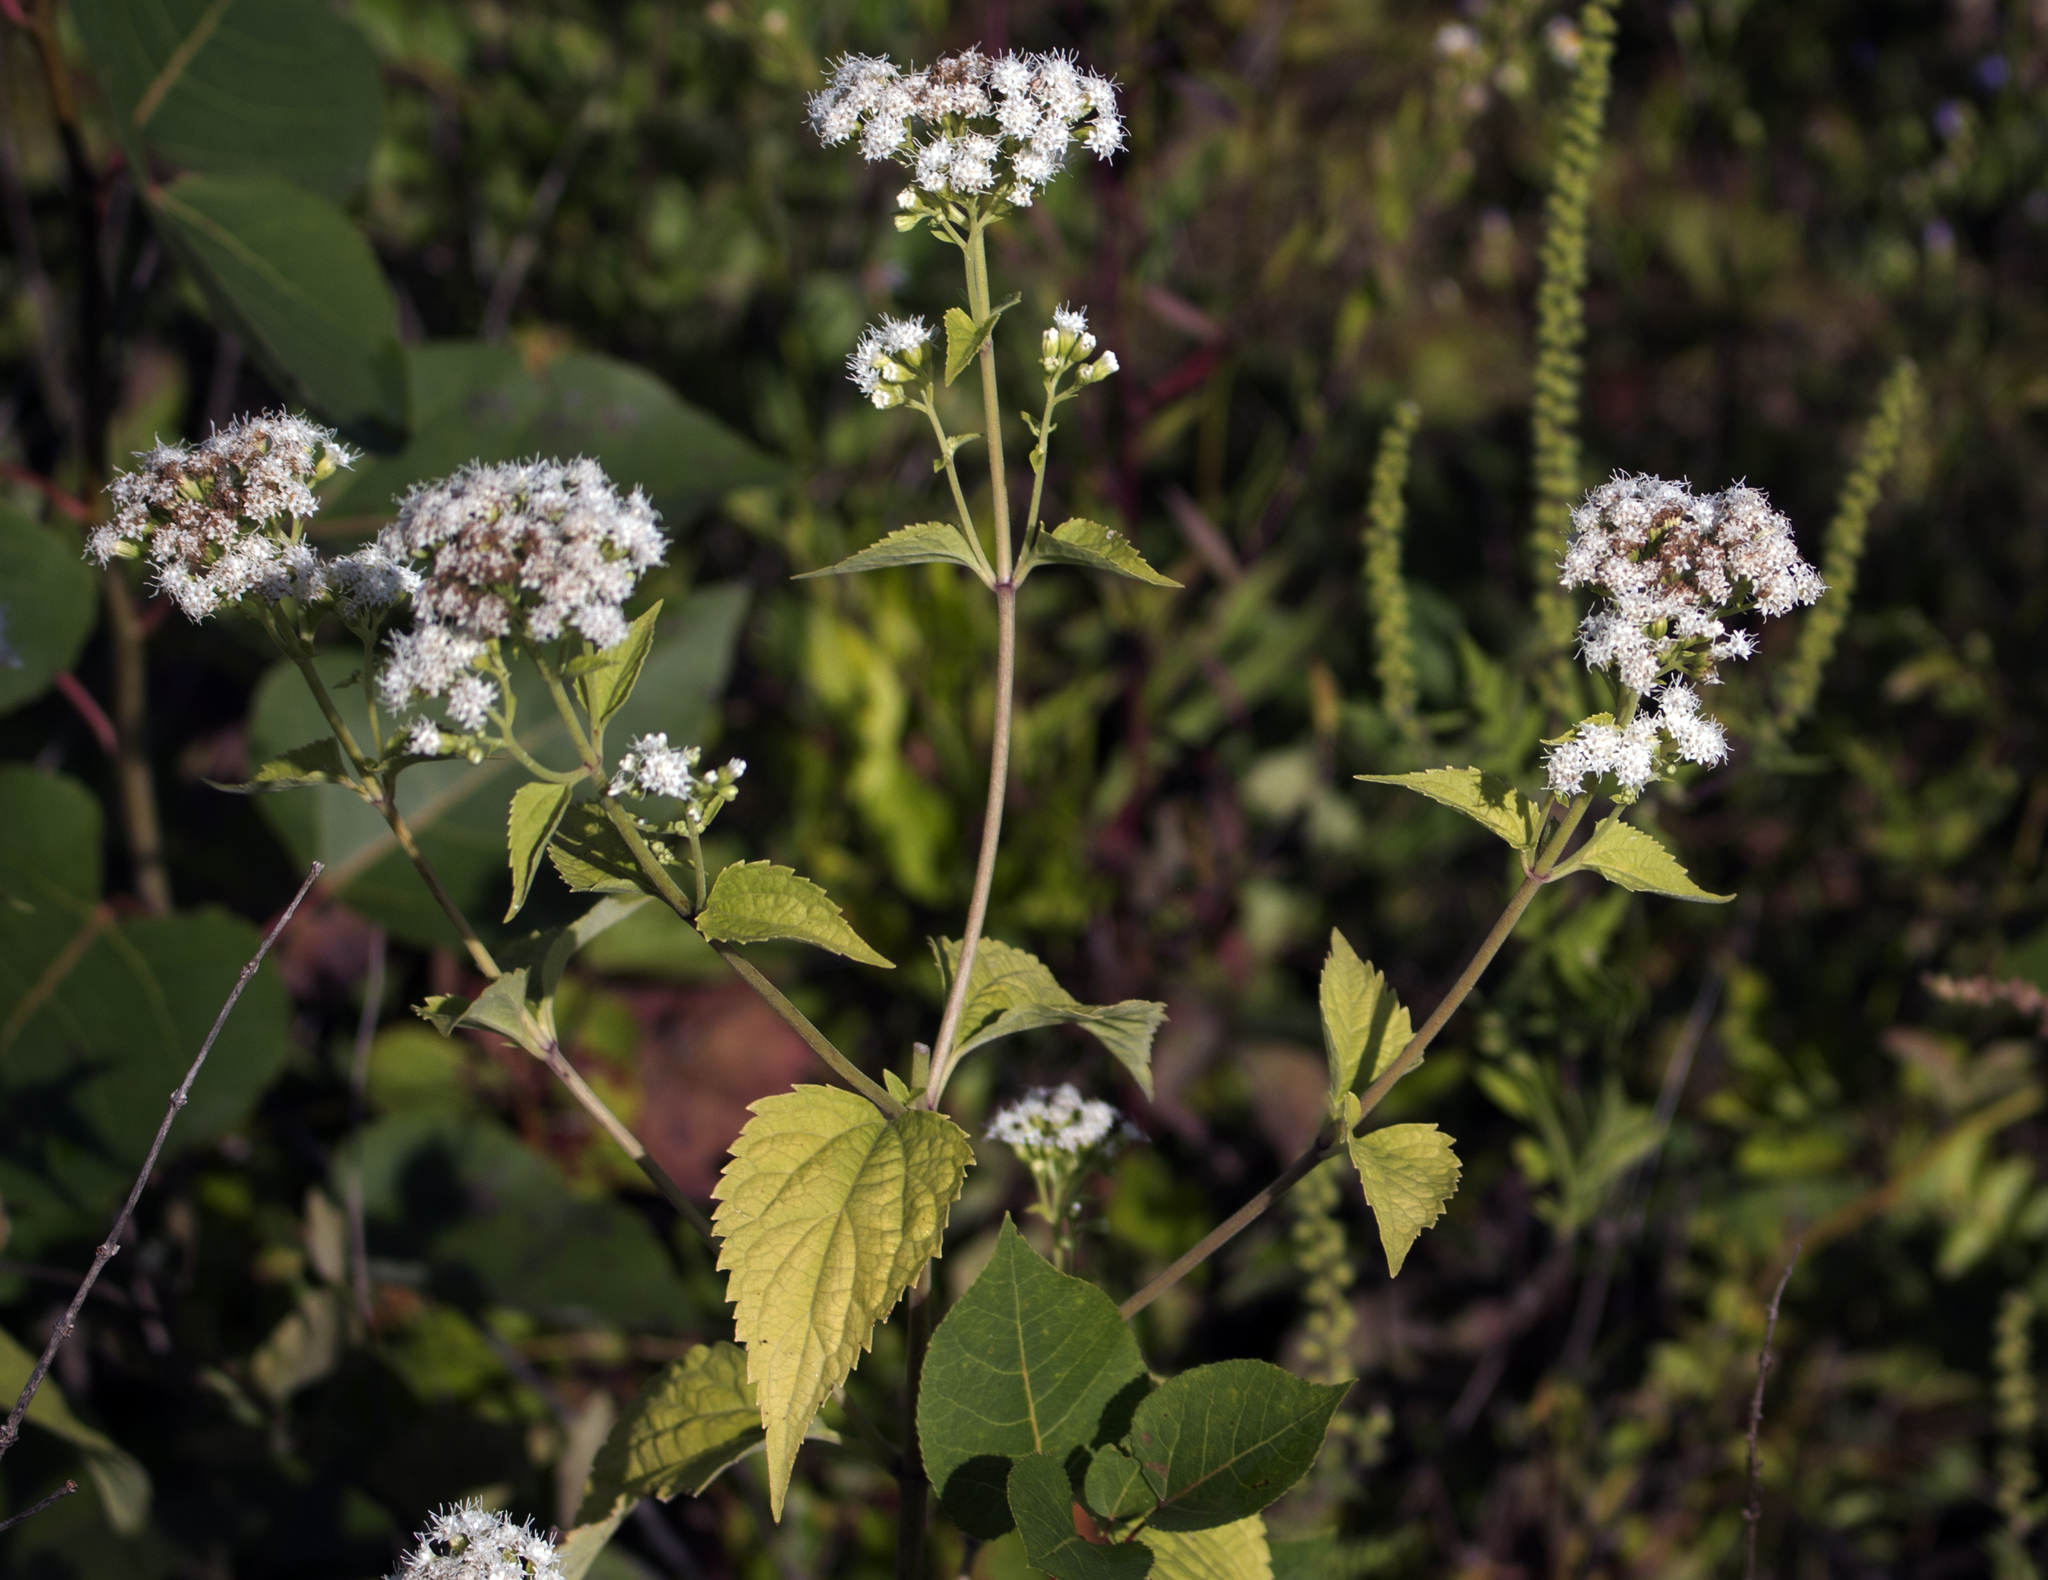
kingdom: Plantae
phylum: Tracheophyta
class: Magnoliopsida
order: Asterales
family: Asteraceae
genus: Ageratina
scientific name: Ageratina altissima
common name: White snakeroot
